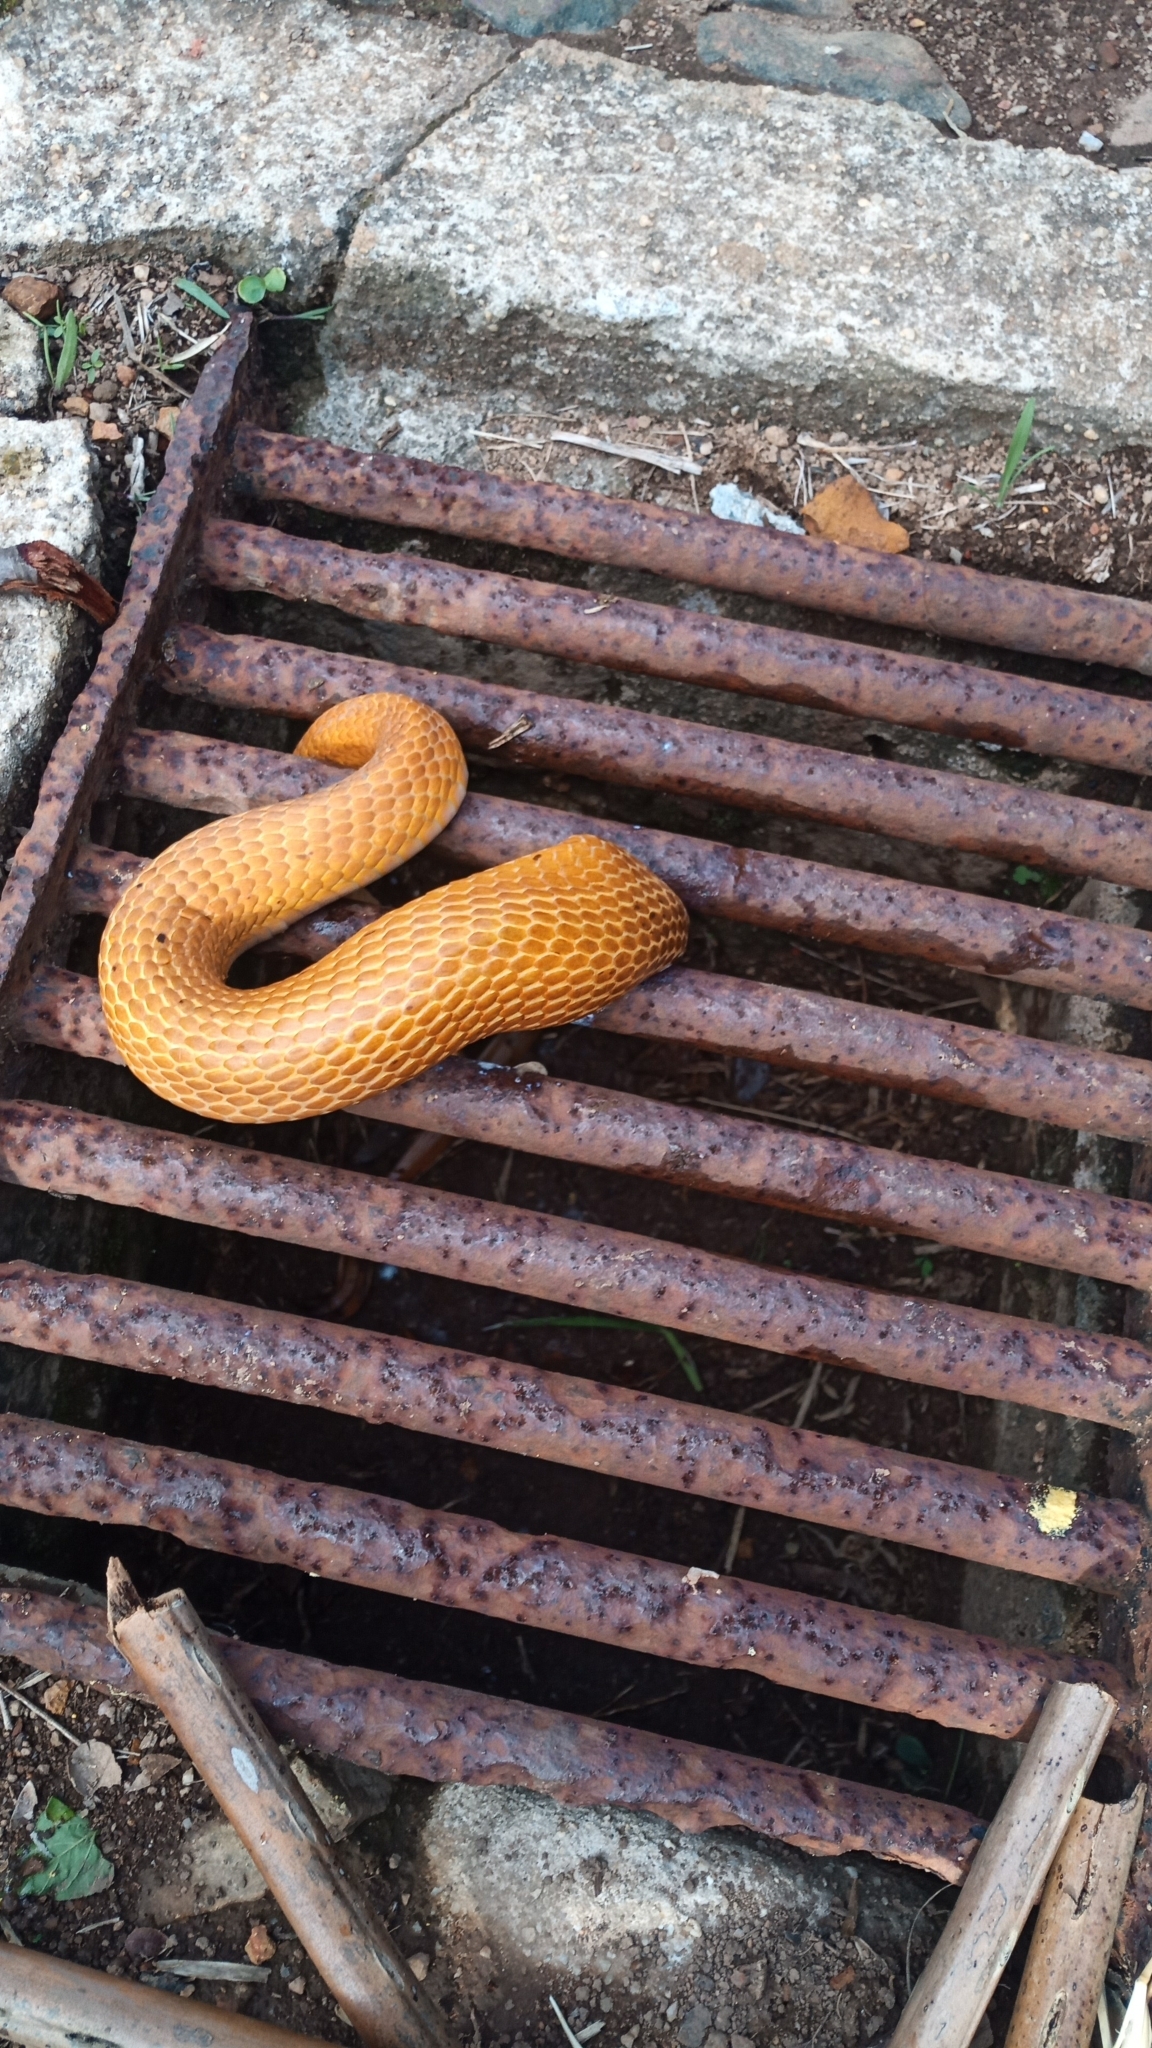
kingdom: Animalia
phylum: Chordata
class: Squamata
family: Elapidae
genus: Naja
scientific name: Naja nivea
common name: Cape cobra
